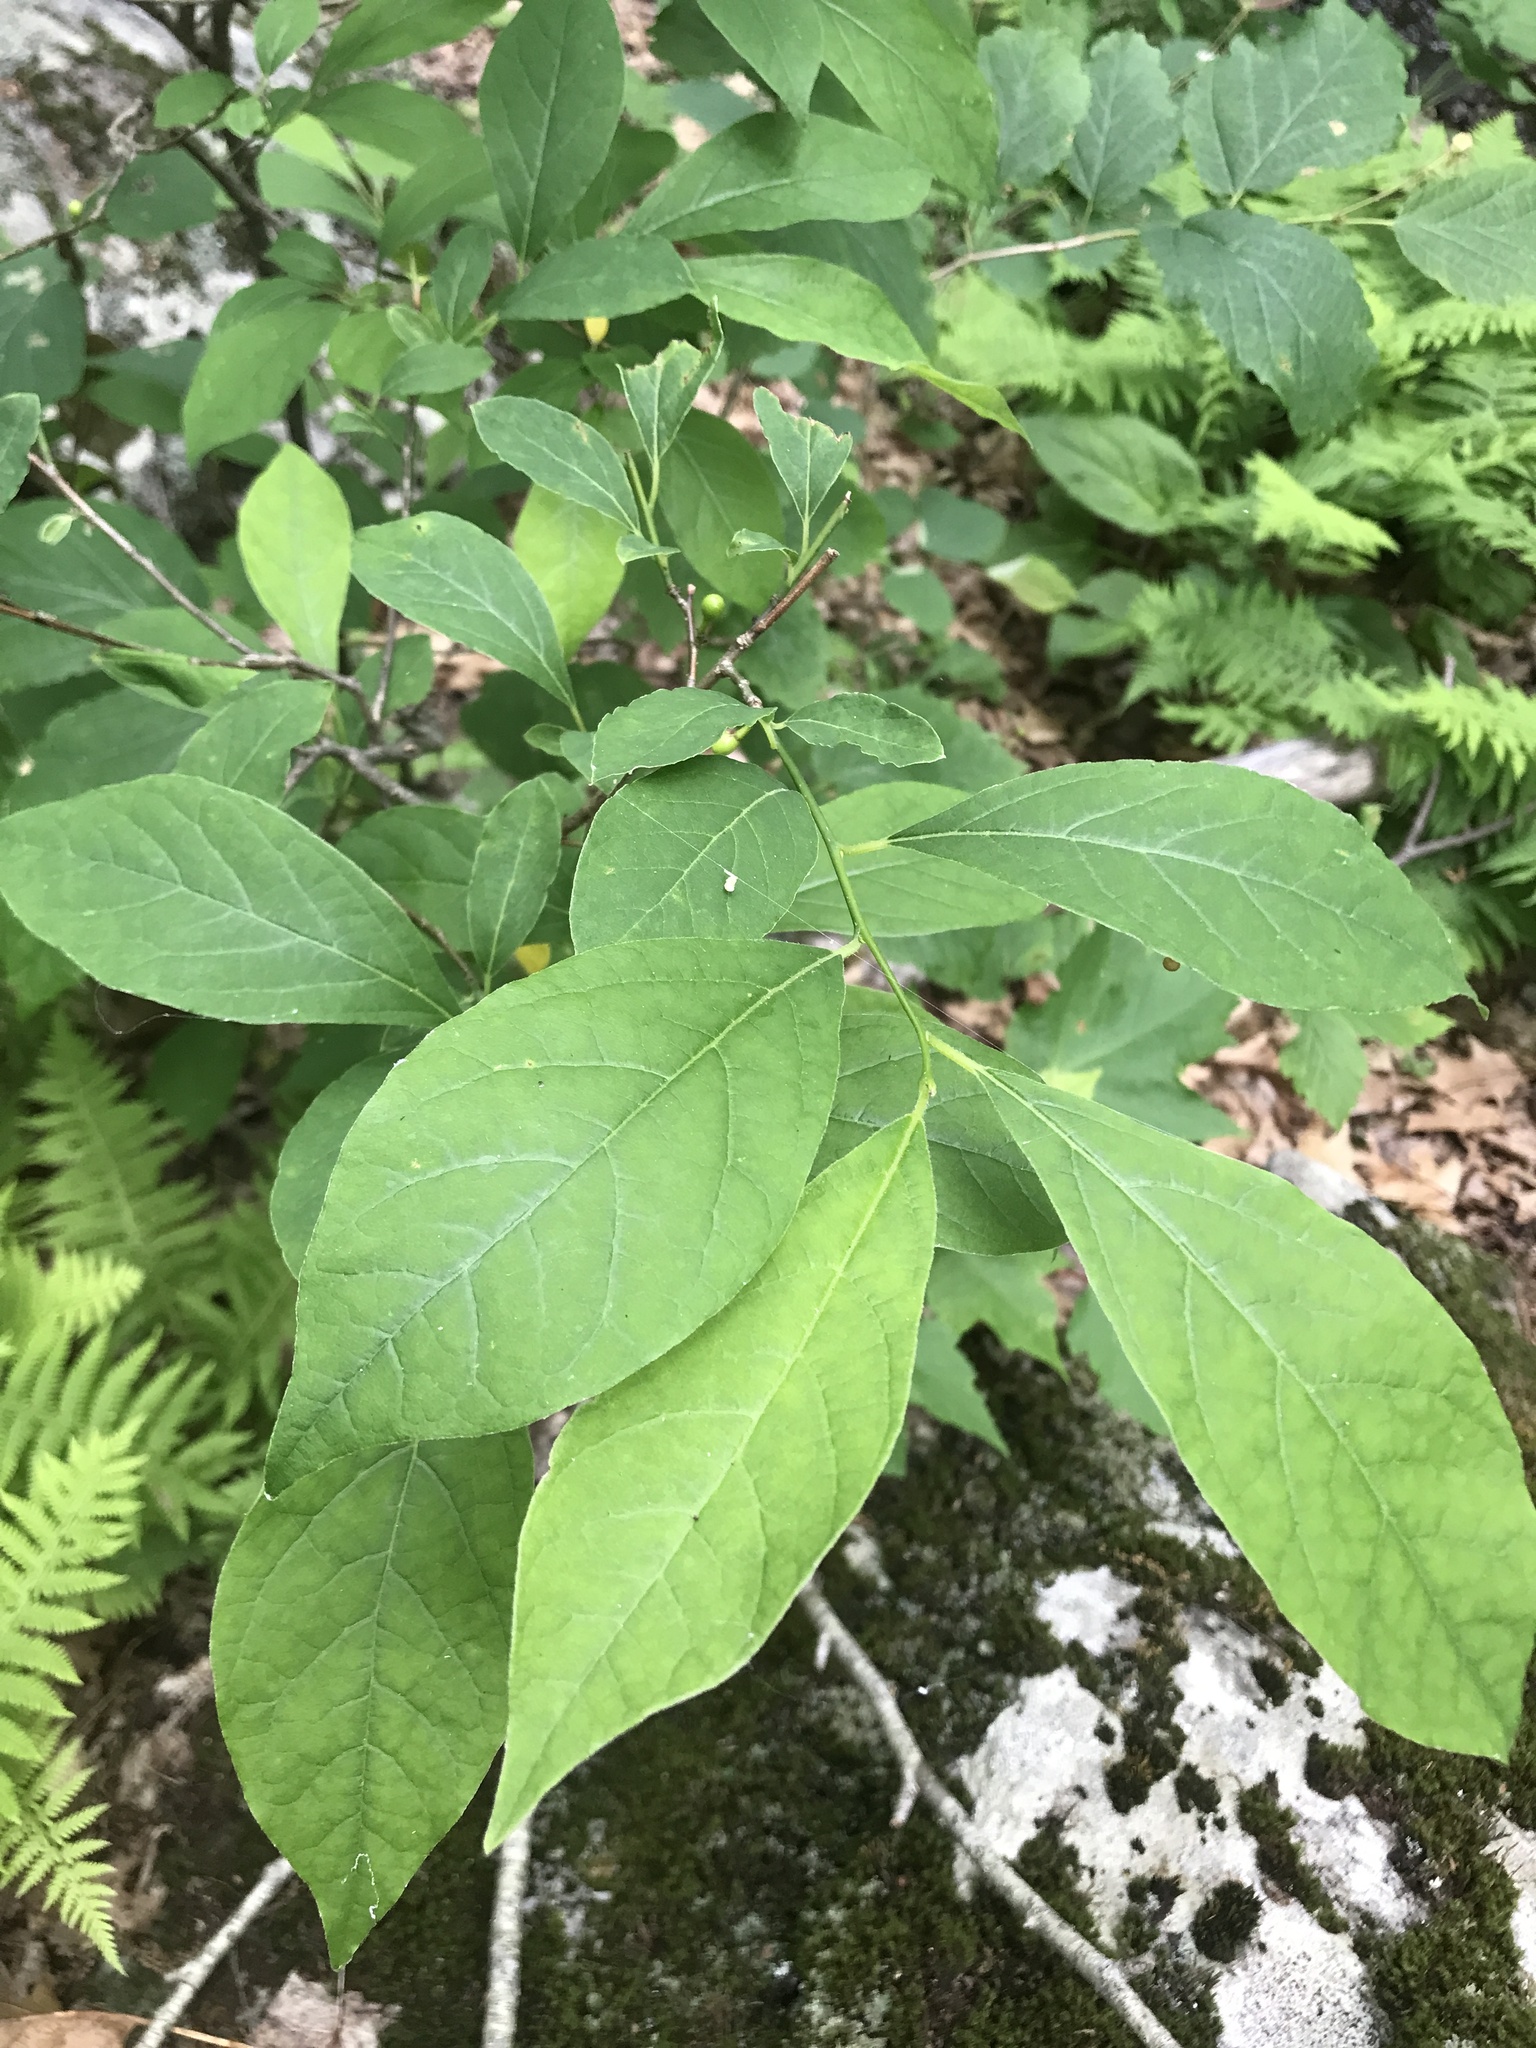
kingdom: Plantae
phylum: Tracheophyta
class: Magnoliopsida
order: Laurales
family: Lauraceae
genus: Lindera
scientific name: Lindera benzoin
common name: Spicebush
